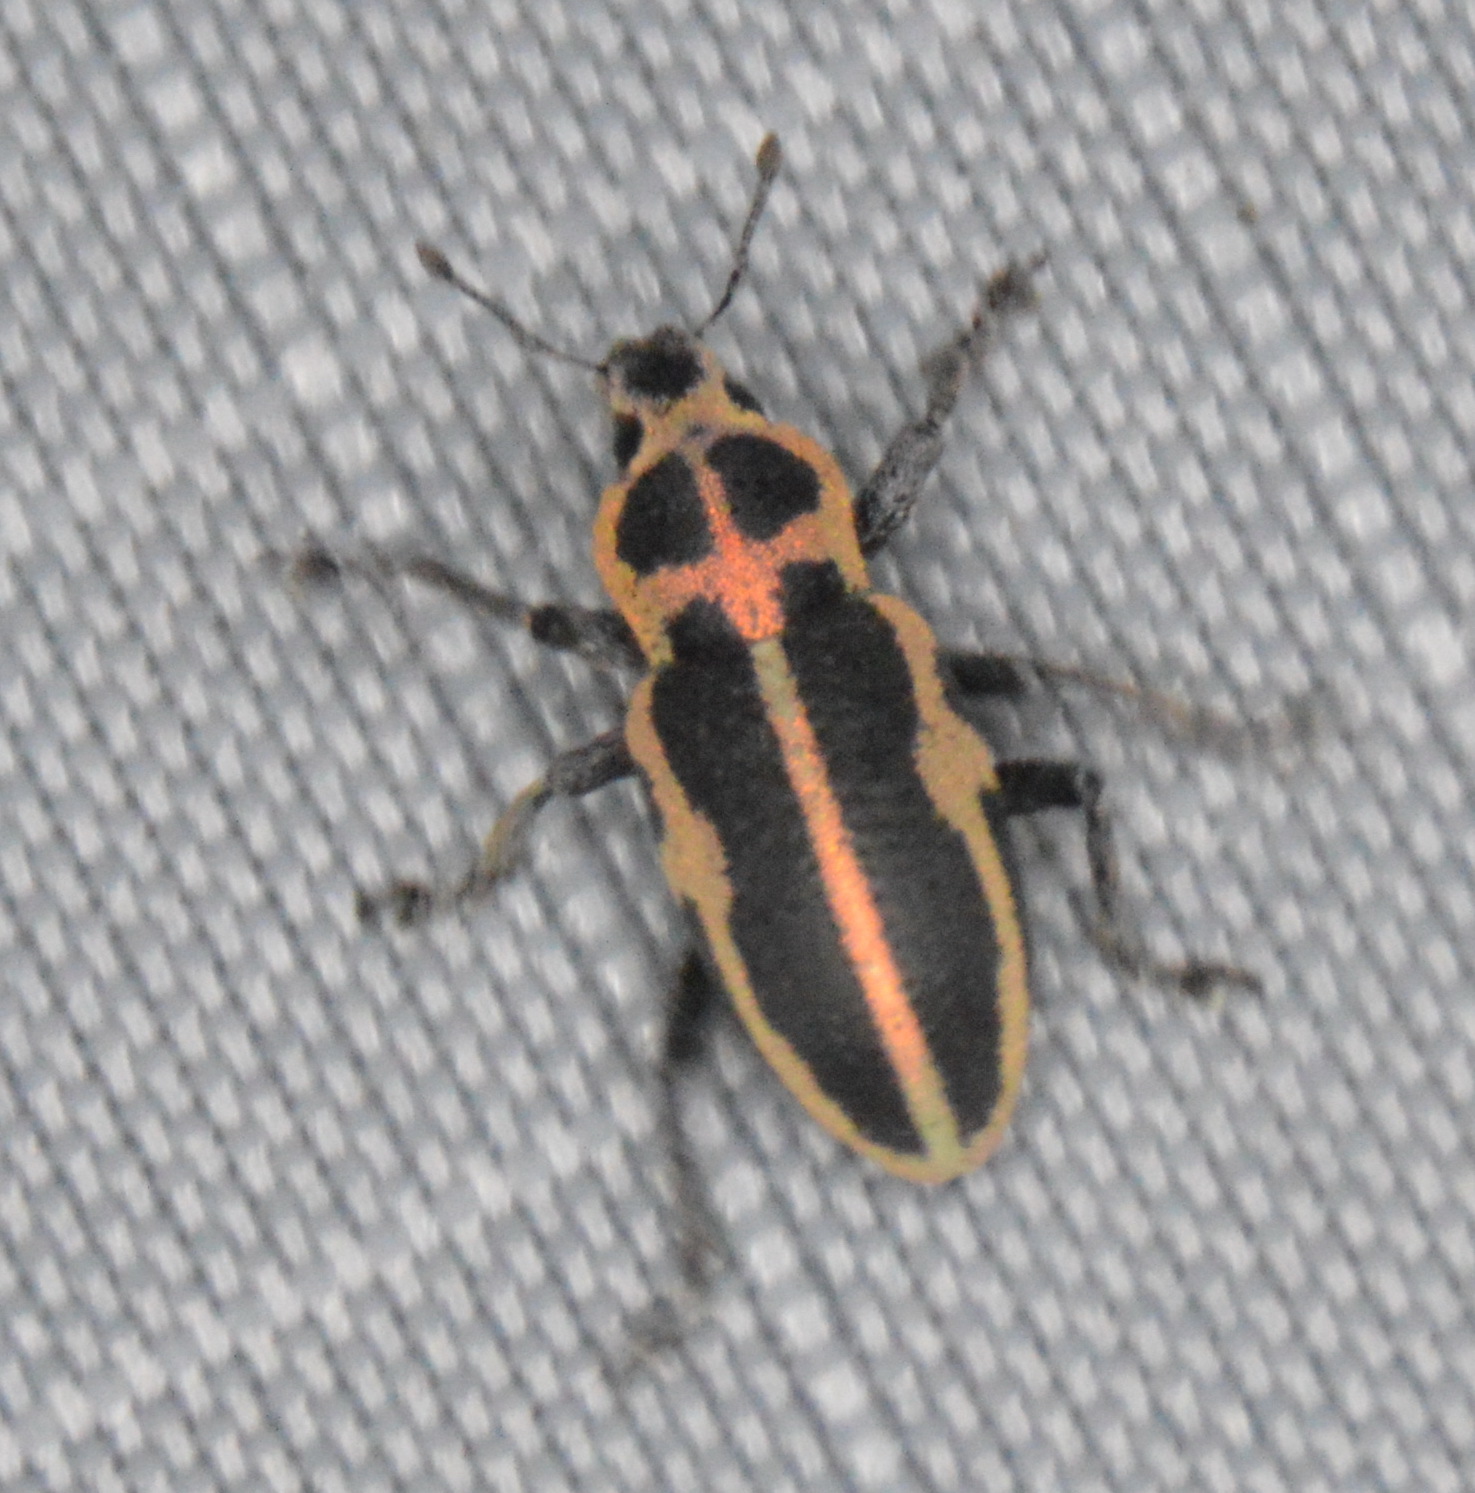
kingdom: Animalia
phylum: Arthropoda
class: Insecta
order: Coleoptera
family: Curculionidae
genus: Eudiagogus
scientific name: Eudiagogus pulcher
